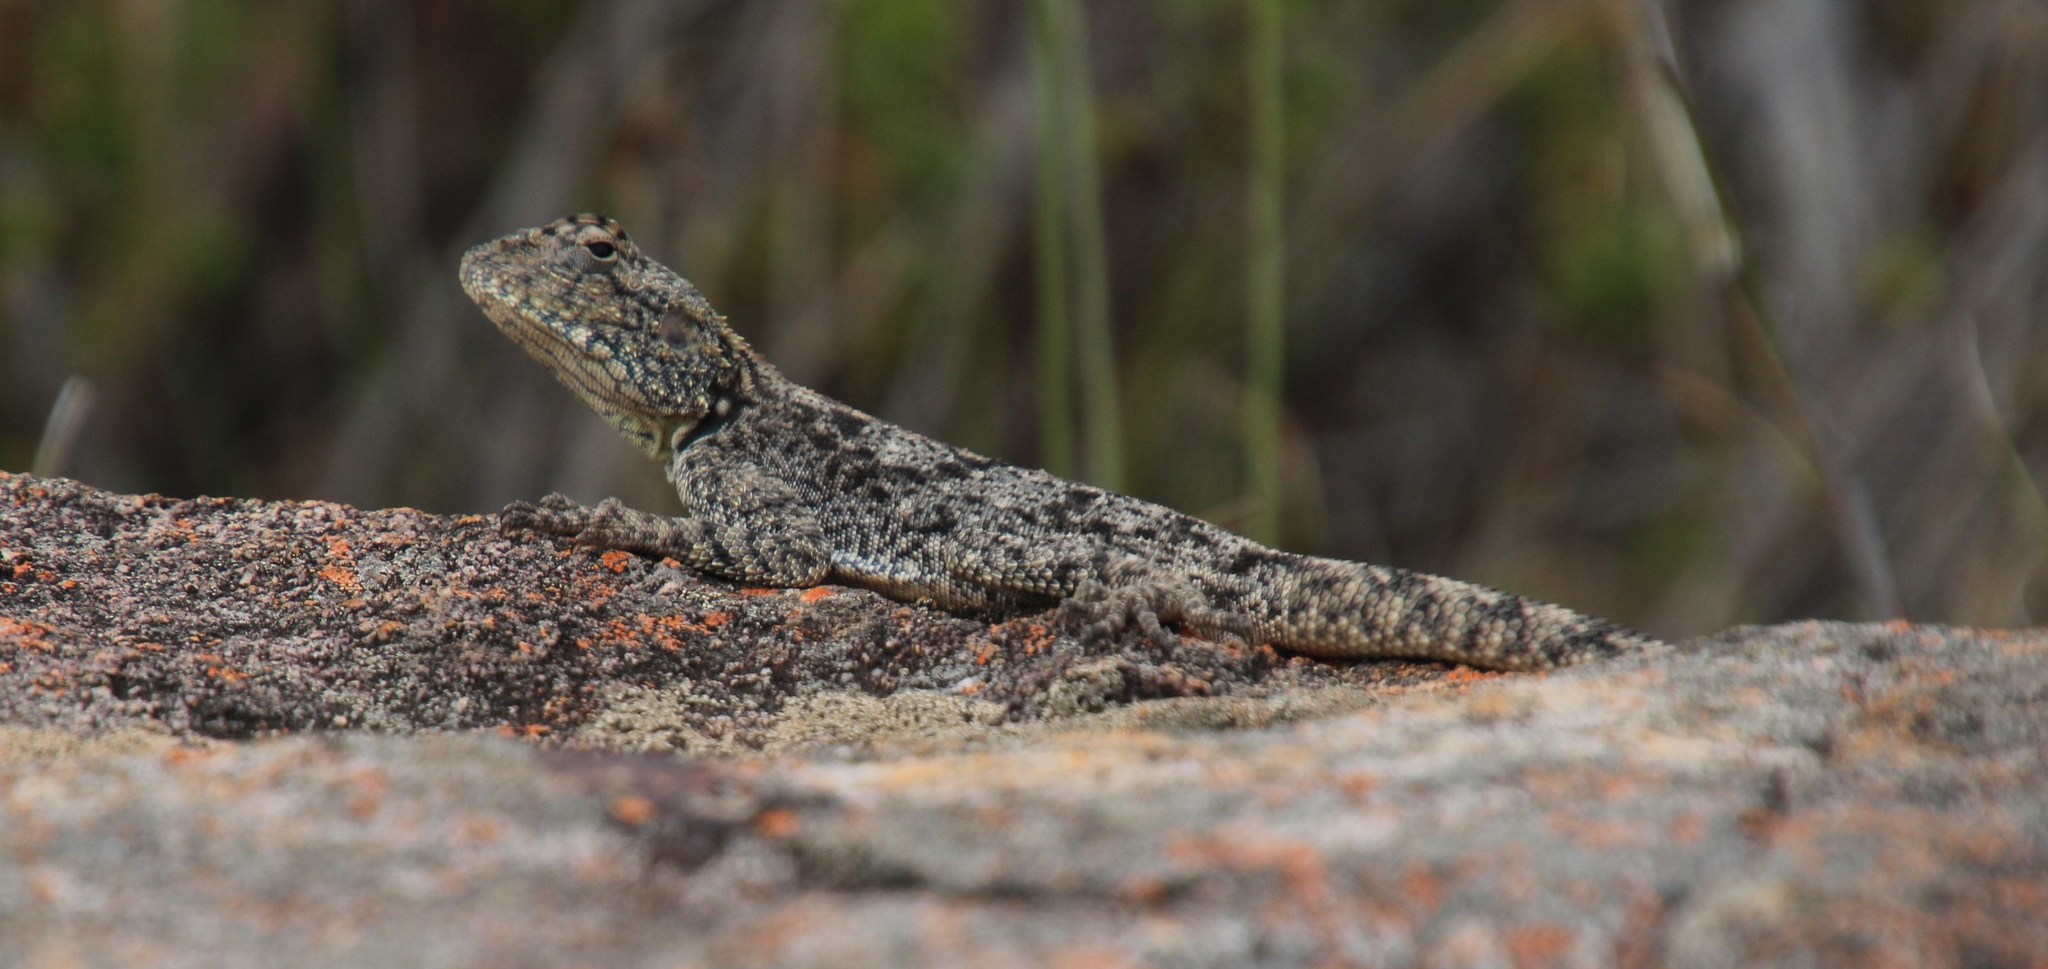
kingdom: Animalia
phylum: Chordata
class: Squamata
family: Agamidae
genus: Agama
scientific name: Agama atra
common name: Southern african rock agama
